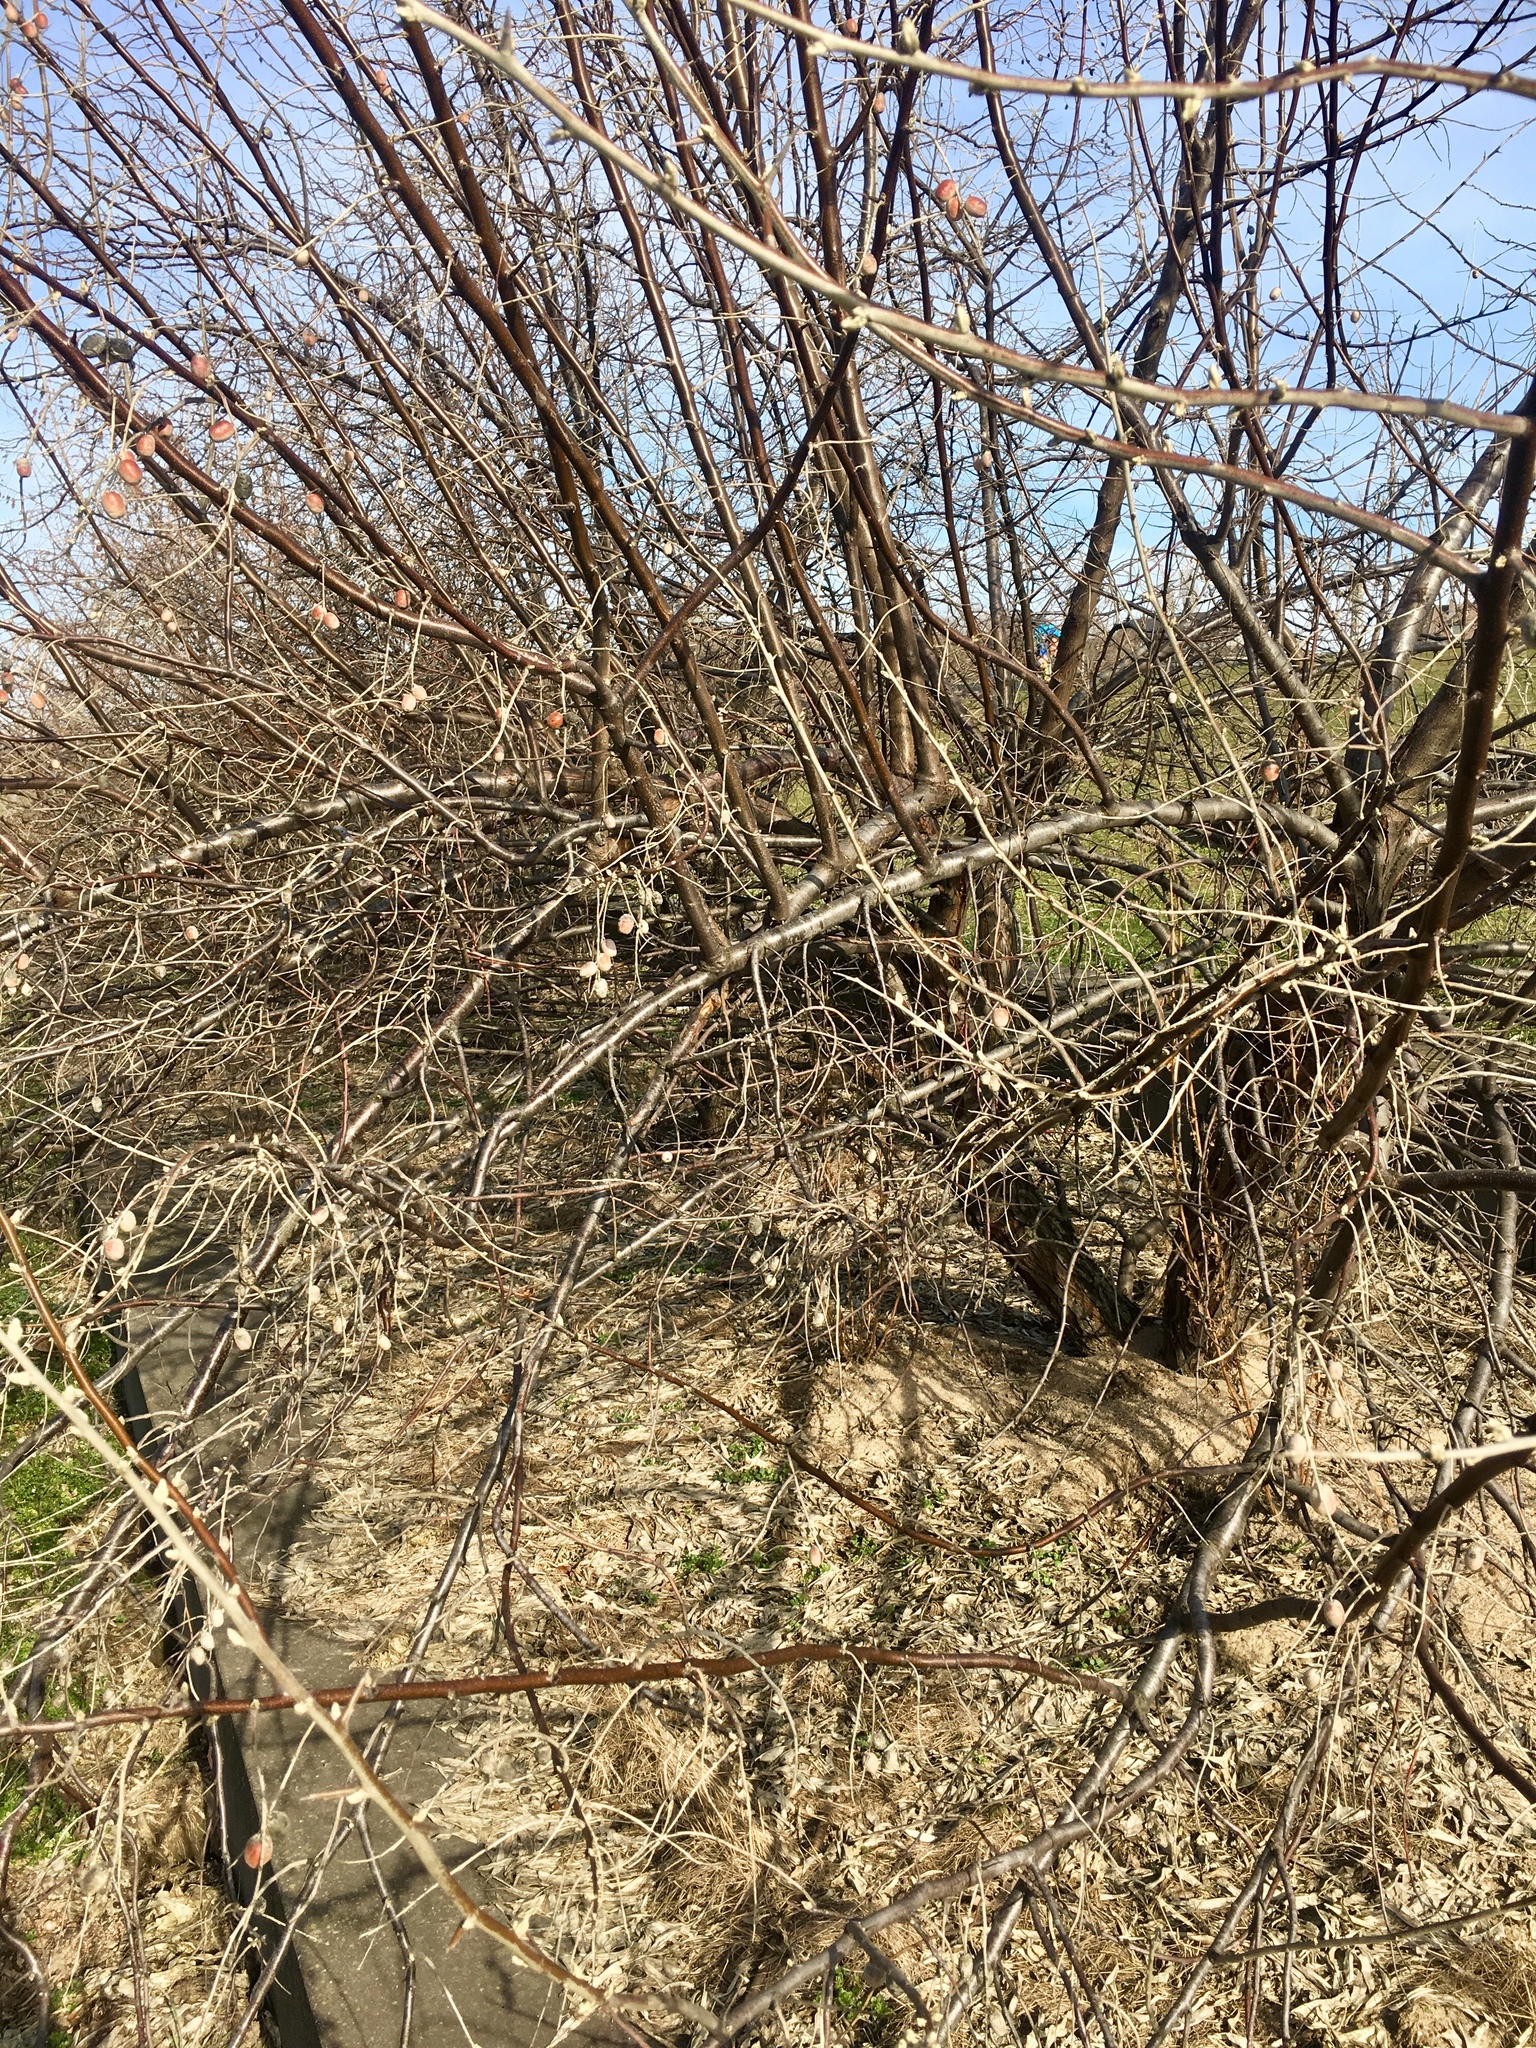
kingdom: Plantae
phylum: Tracheophyta
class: Magnoliopsida
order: Cornales
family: Cornaceae
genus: Cornus
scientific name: Cornus mas
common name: Cornelian-cherry
